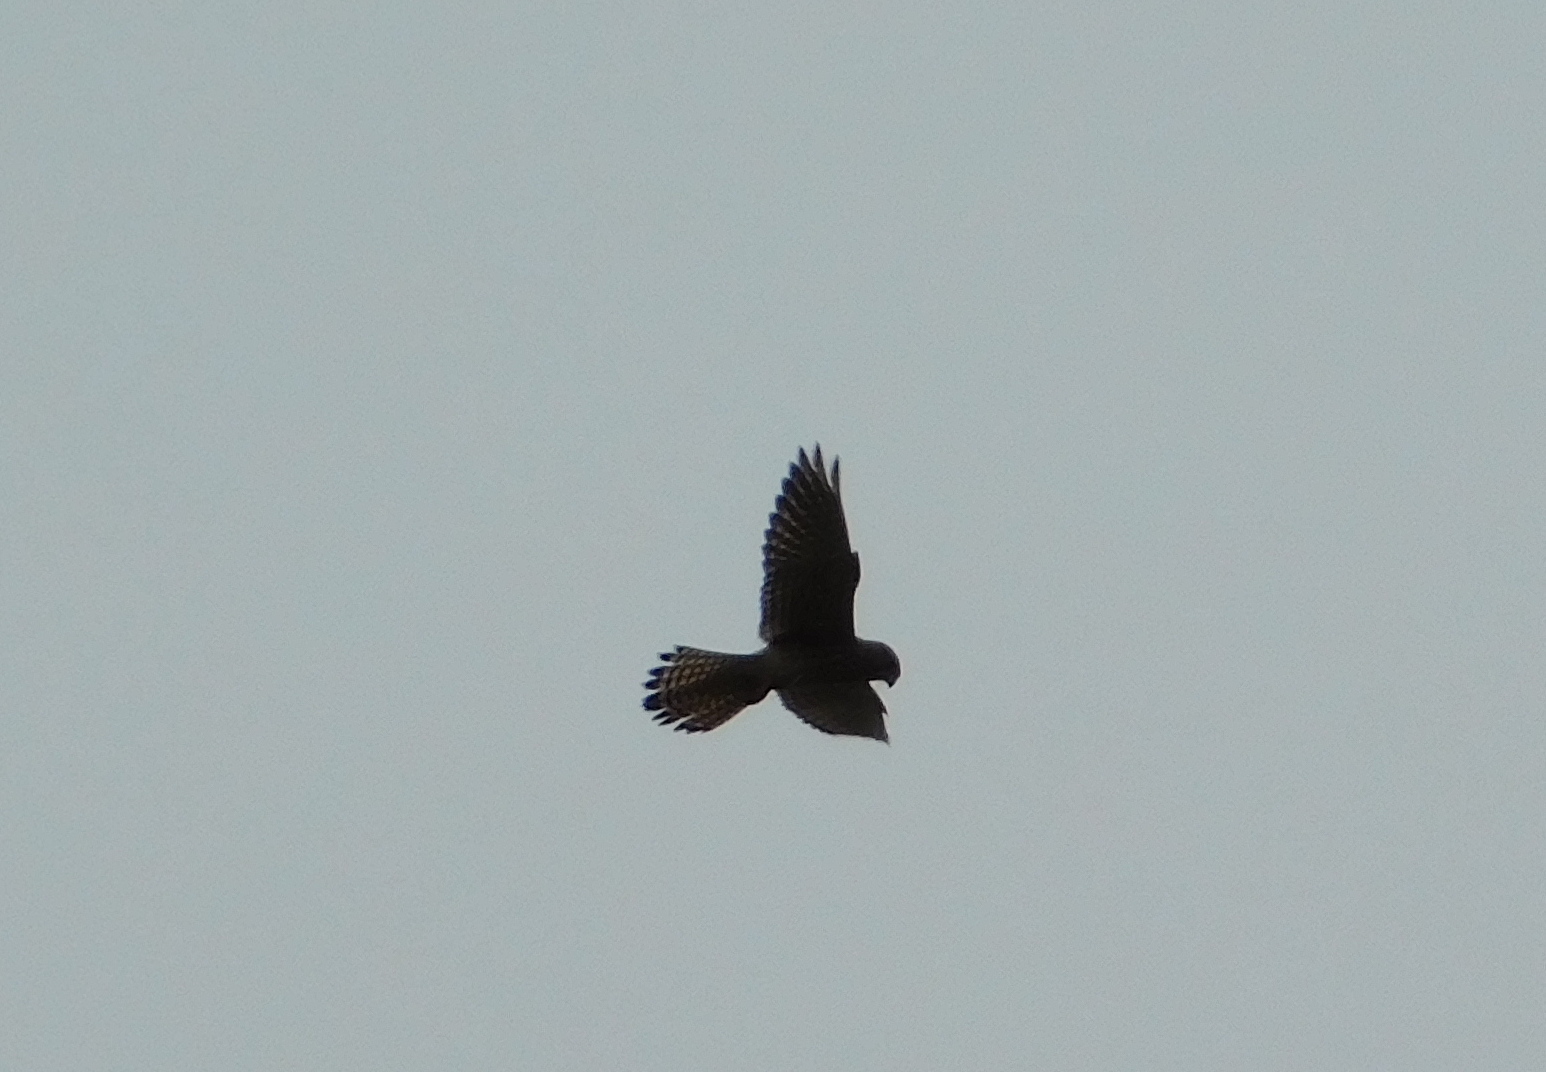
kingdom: Animalia
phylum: Chordata
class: Aves
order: Falconiformes
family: Falconidae
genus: Falco
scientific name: Falco tinnunculus
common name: Common kestrel
